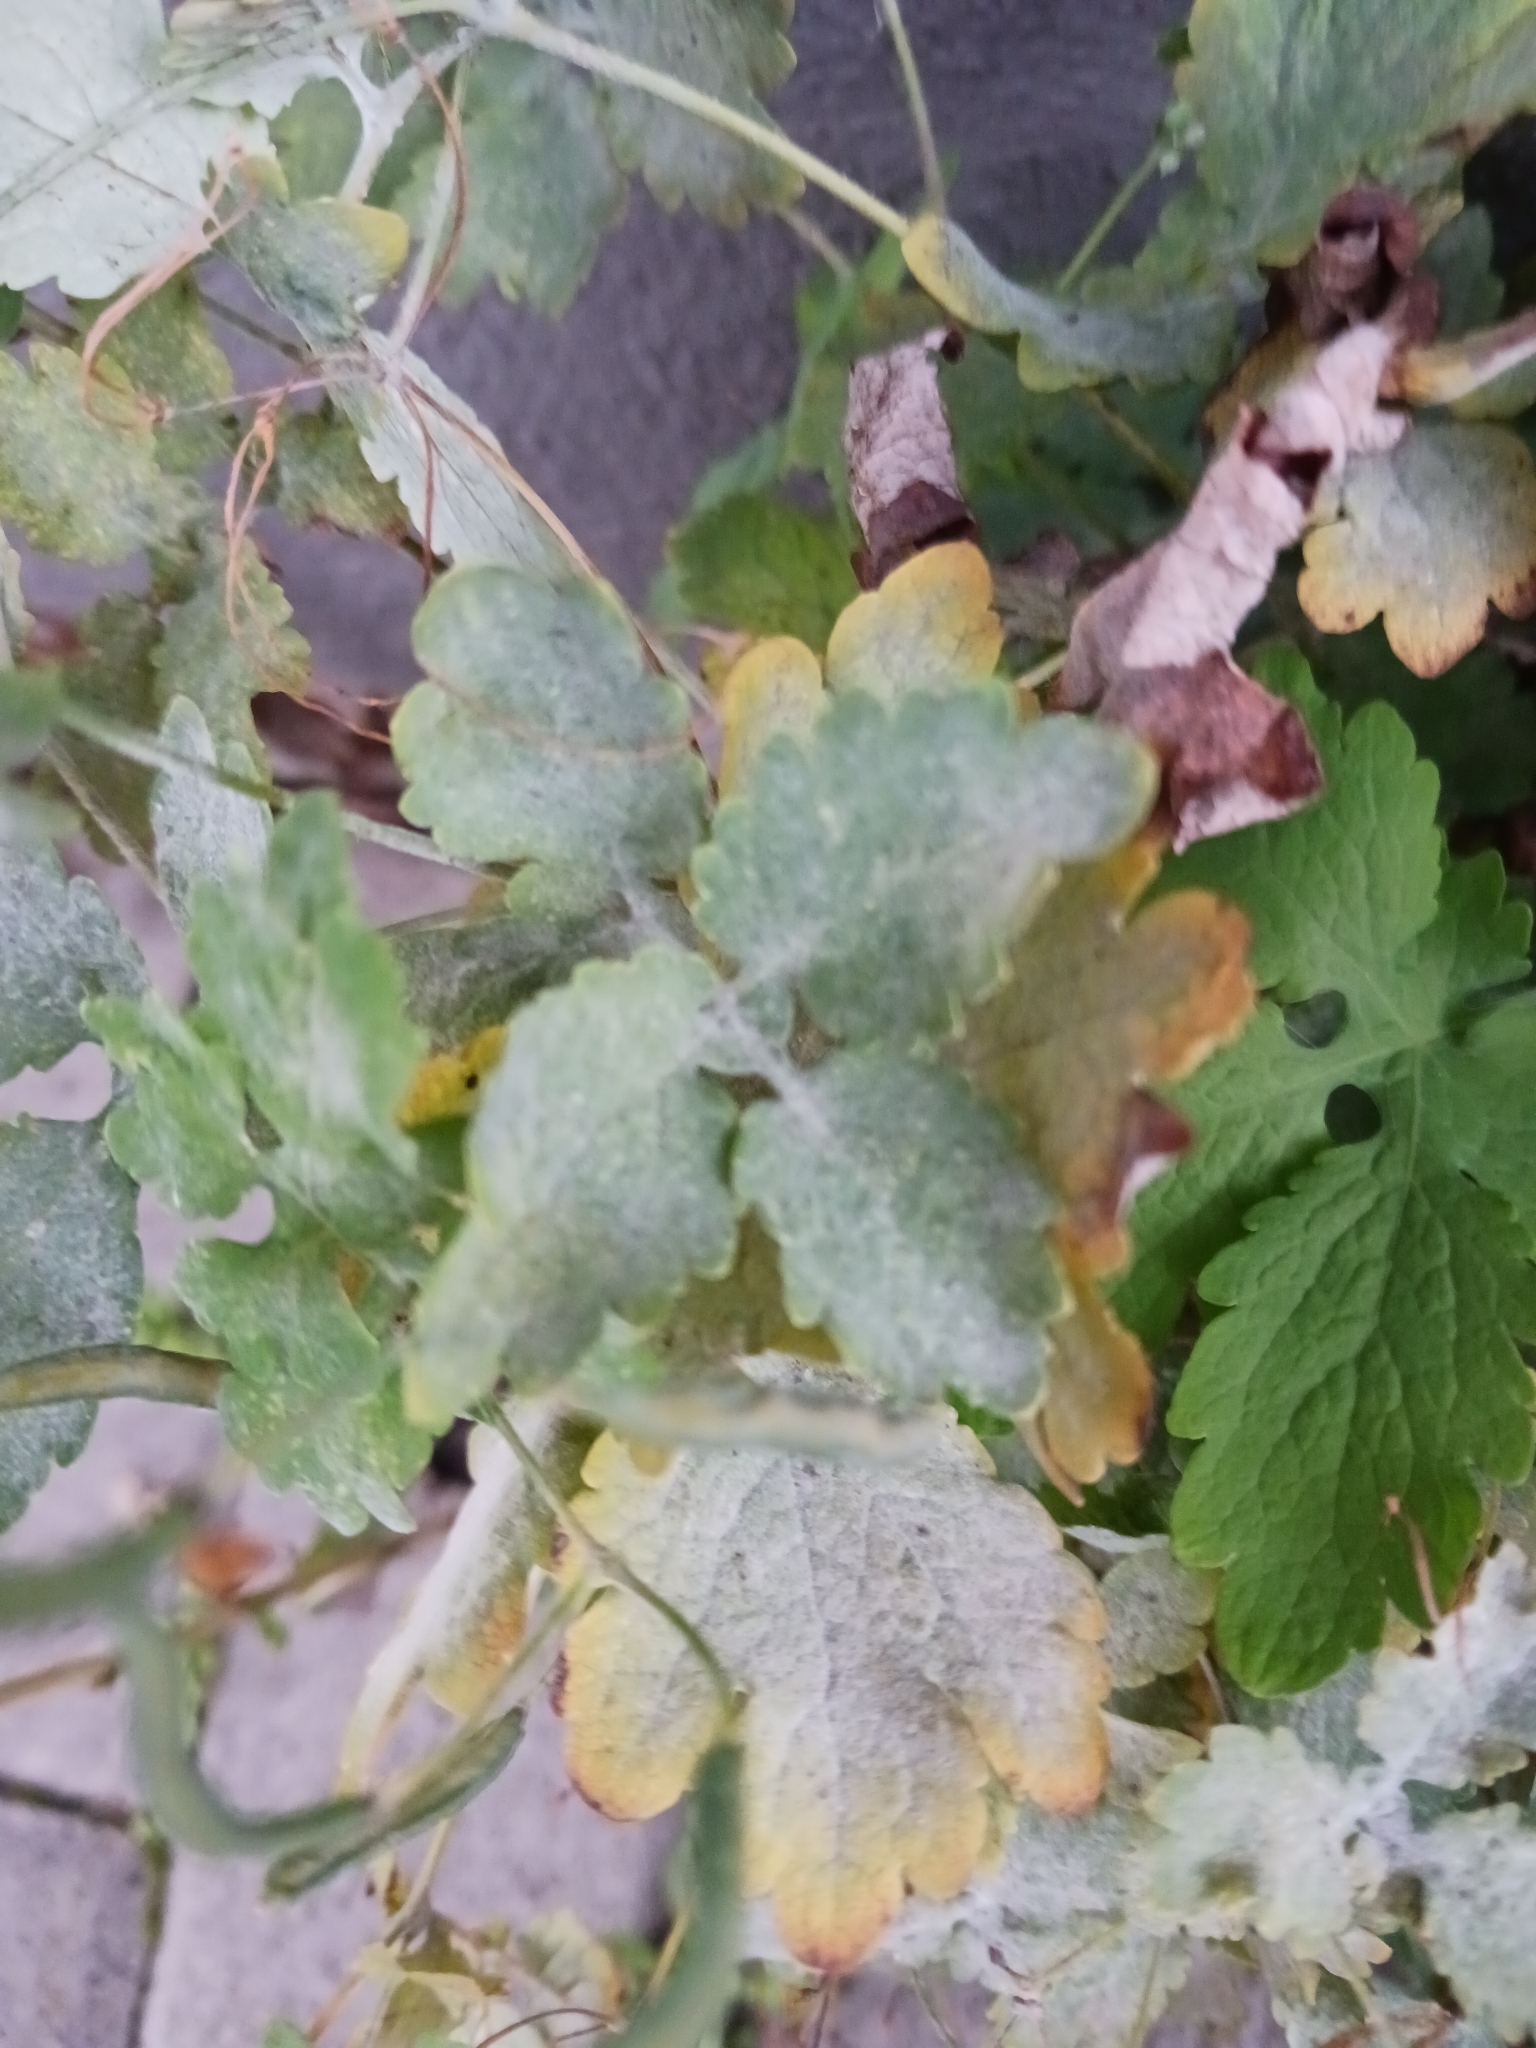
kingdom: Fungi
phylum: Ascomycota
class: Leotiomycetes
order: Helotiales
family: Erysiphaceae
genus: Erysiphe
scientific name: Erysiphe macleayae
